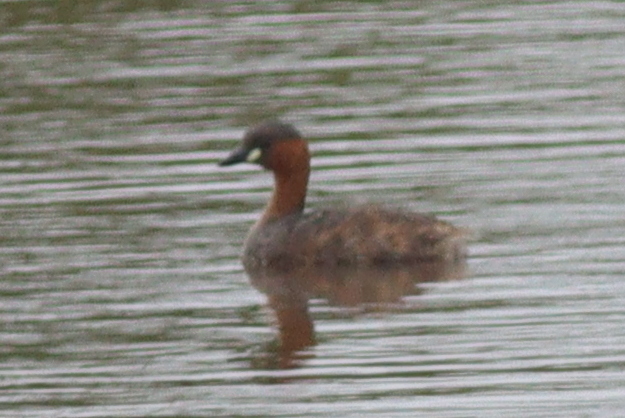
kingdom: Animalia
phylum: Chordata
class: Aves
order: Podicipediformes
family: Podicipedidae
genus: Tachybaptus
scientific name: Tachybaptus ruficollis
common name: Little grebe
